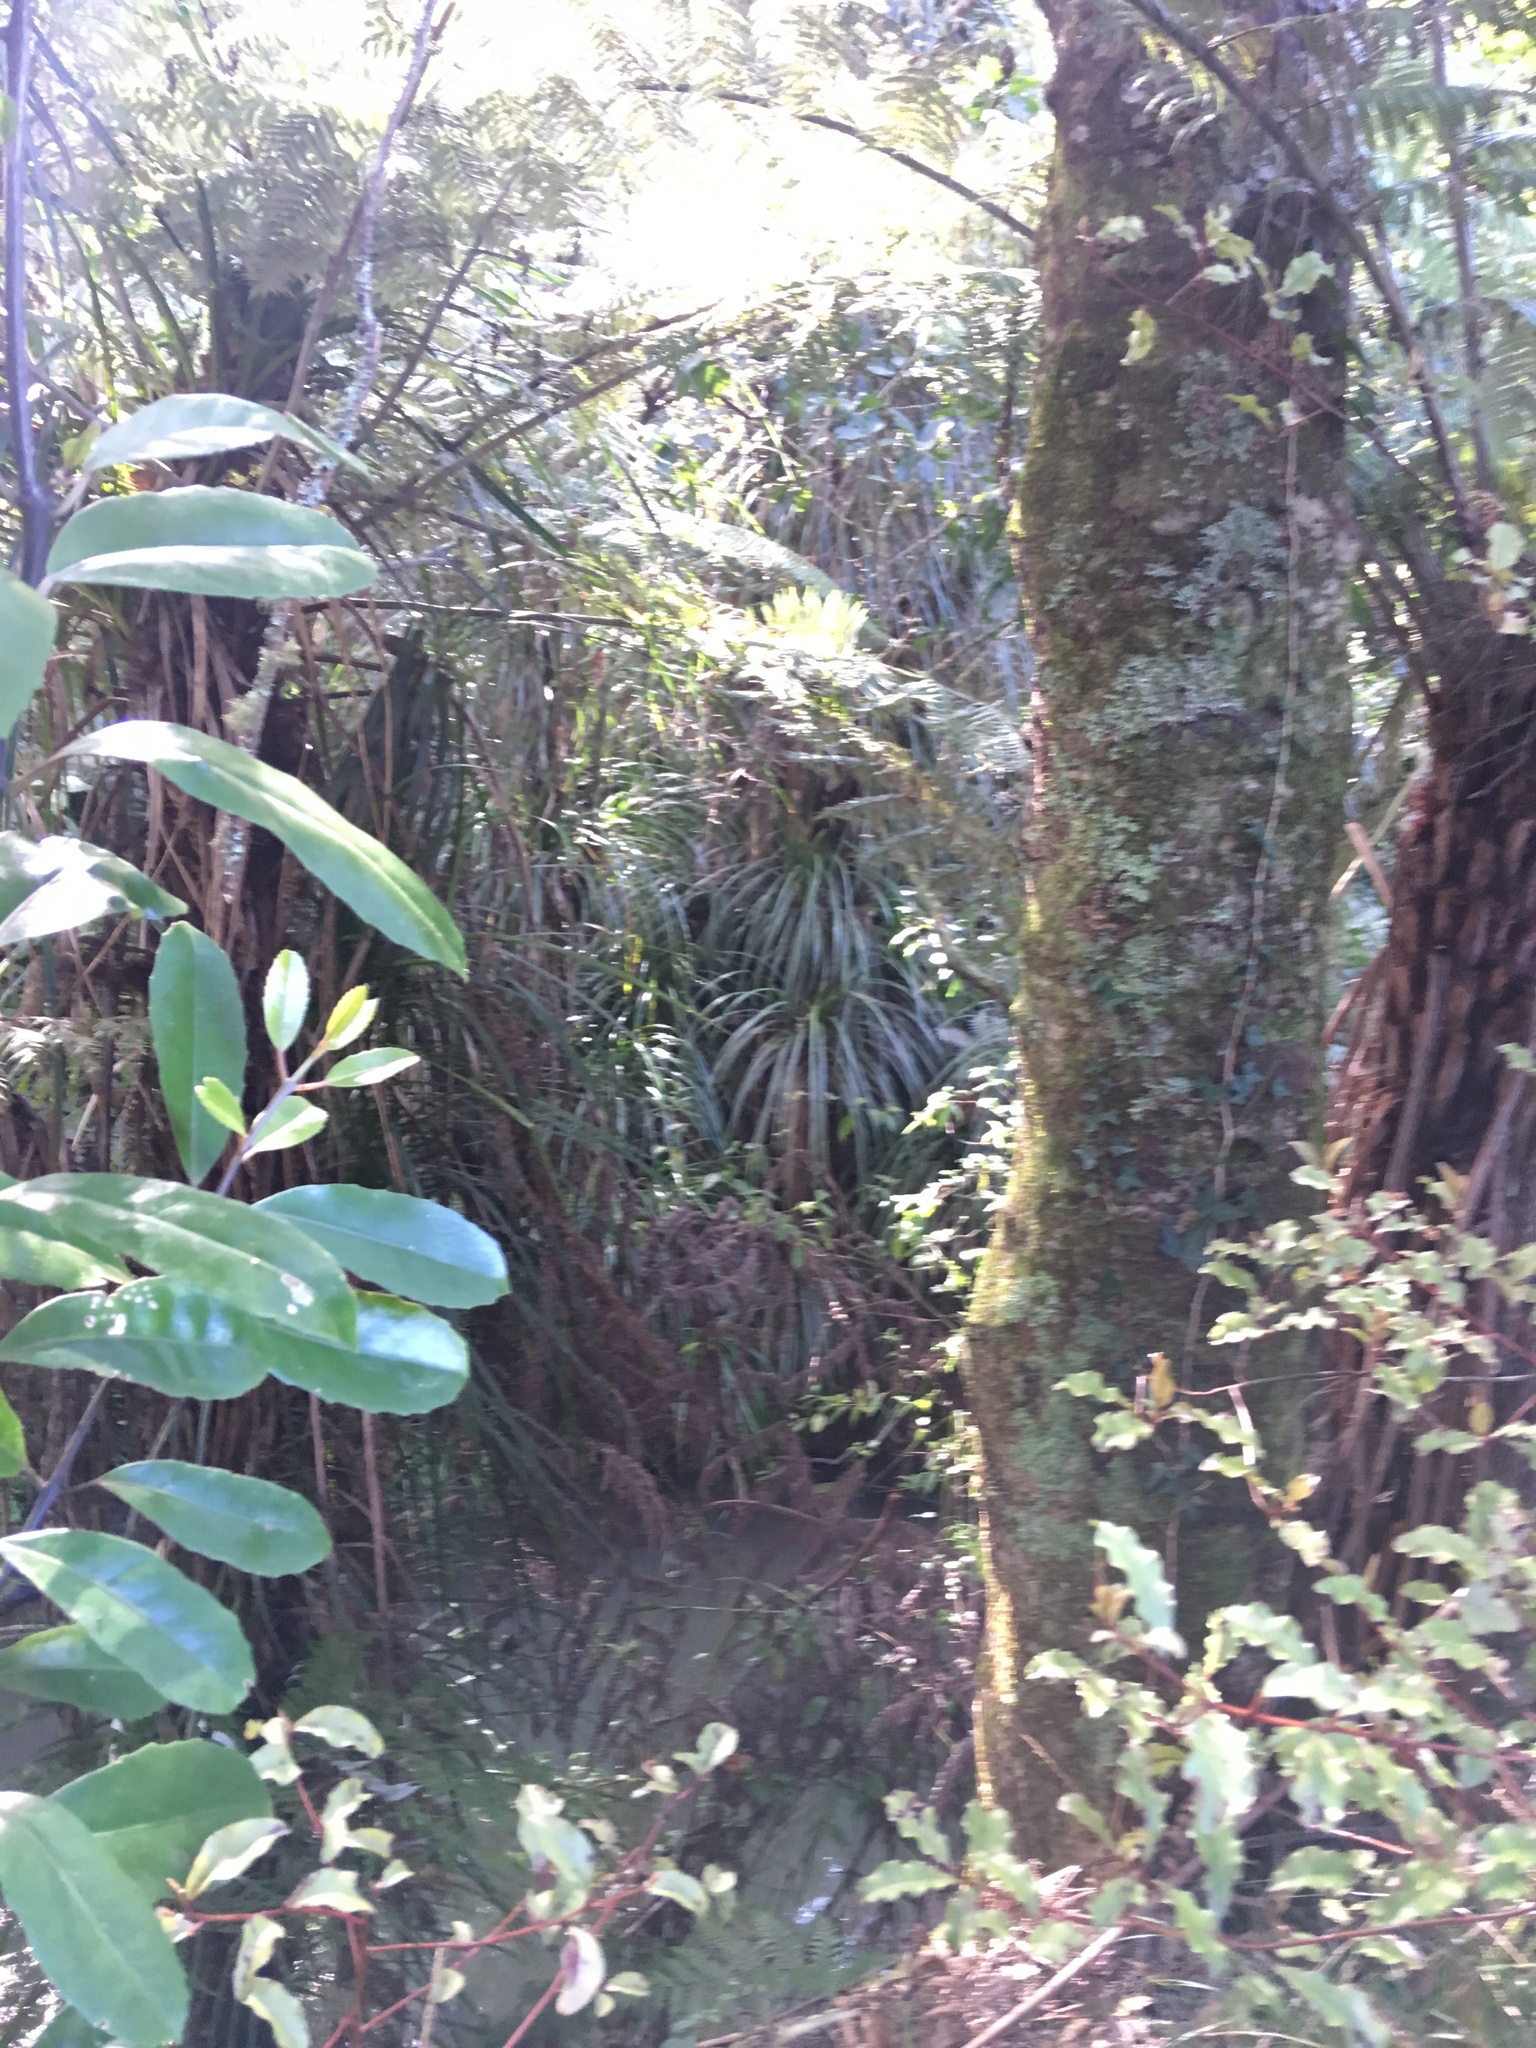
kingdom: Plantae
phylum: Tracheophyta
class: Liliopsida
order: Pandanales
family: Pandanaceae
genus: Freycinetia
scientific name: Freycinetia banksii
